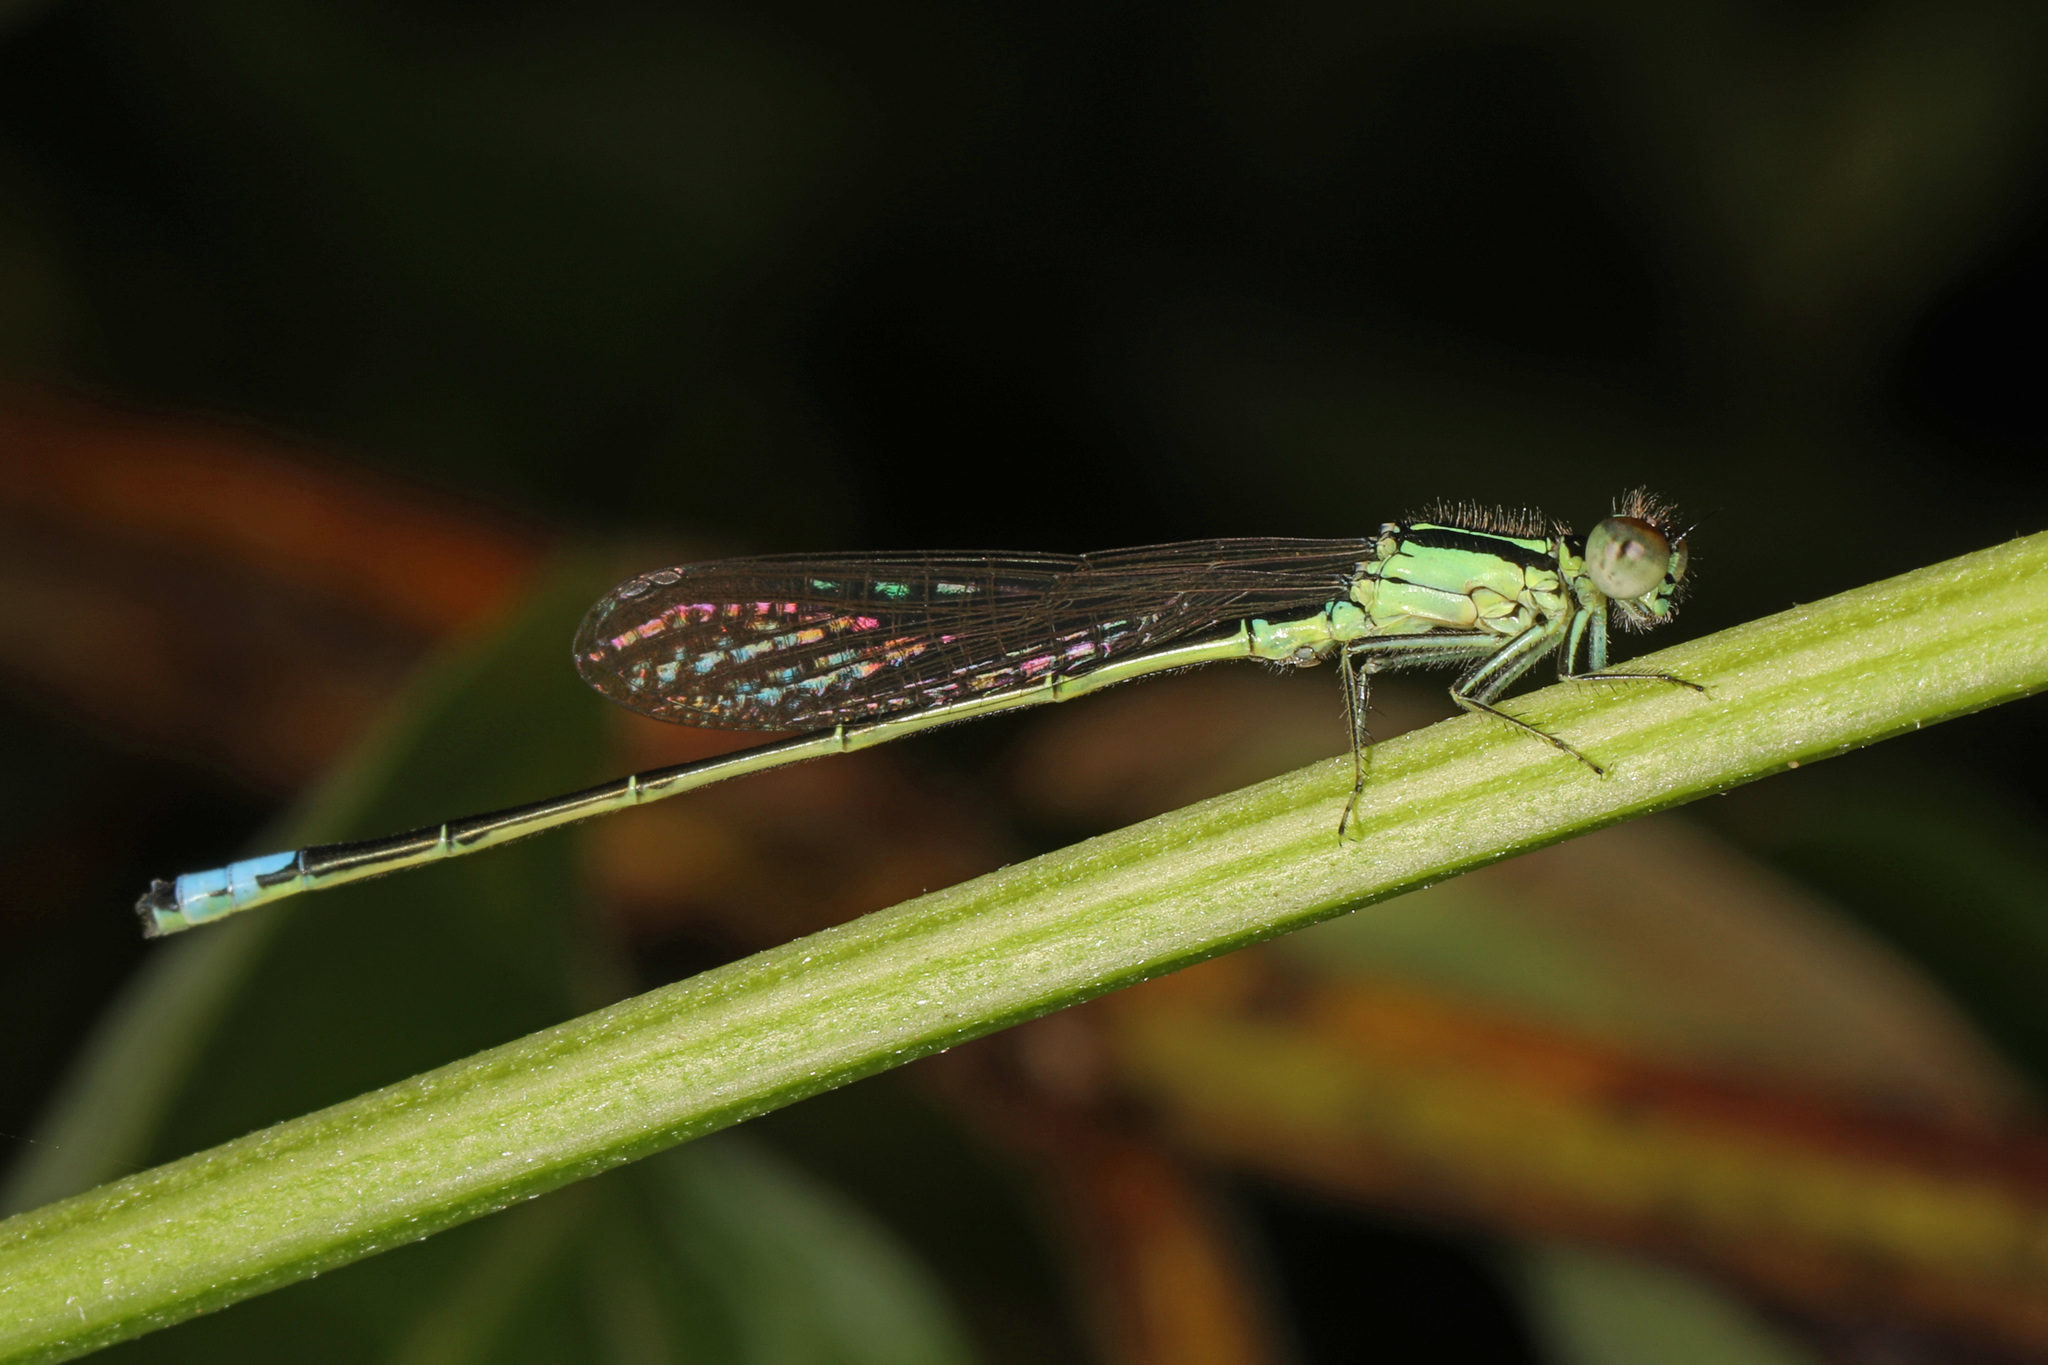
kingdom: Animalia
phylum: Arthropoda
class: Insecta
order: Odonata
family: Coenagrionidae
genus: Ischnura
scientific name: Ischnura verticalis
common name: Eastern forktail
